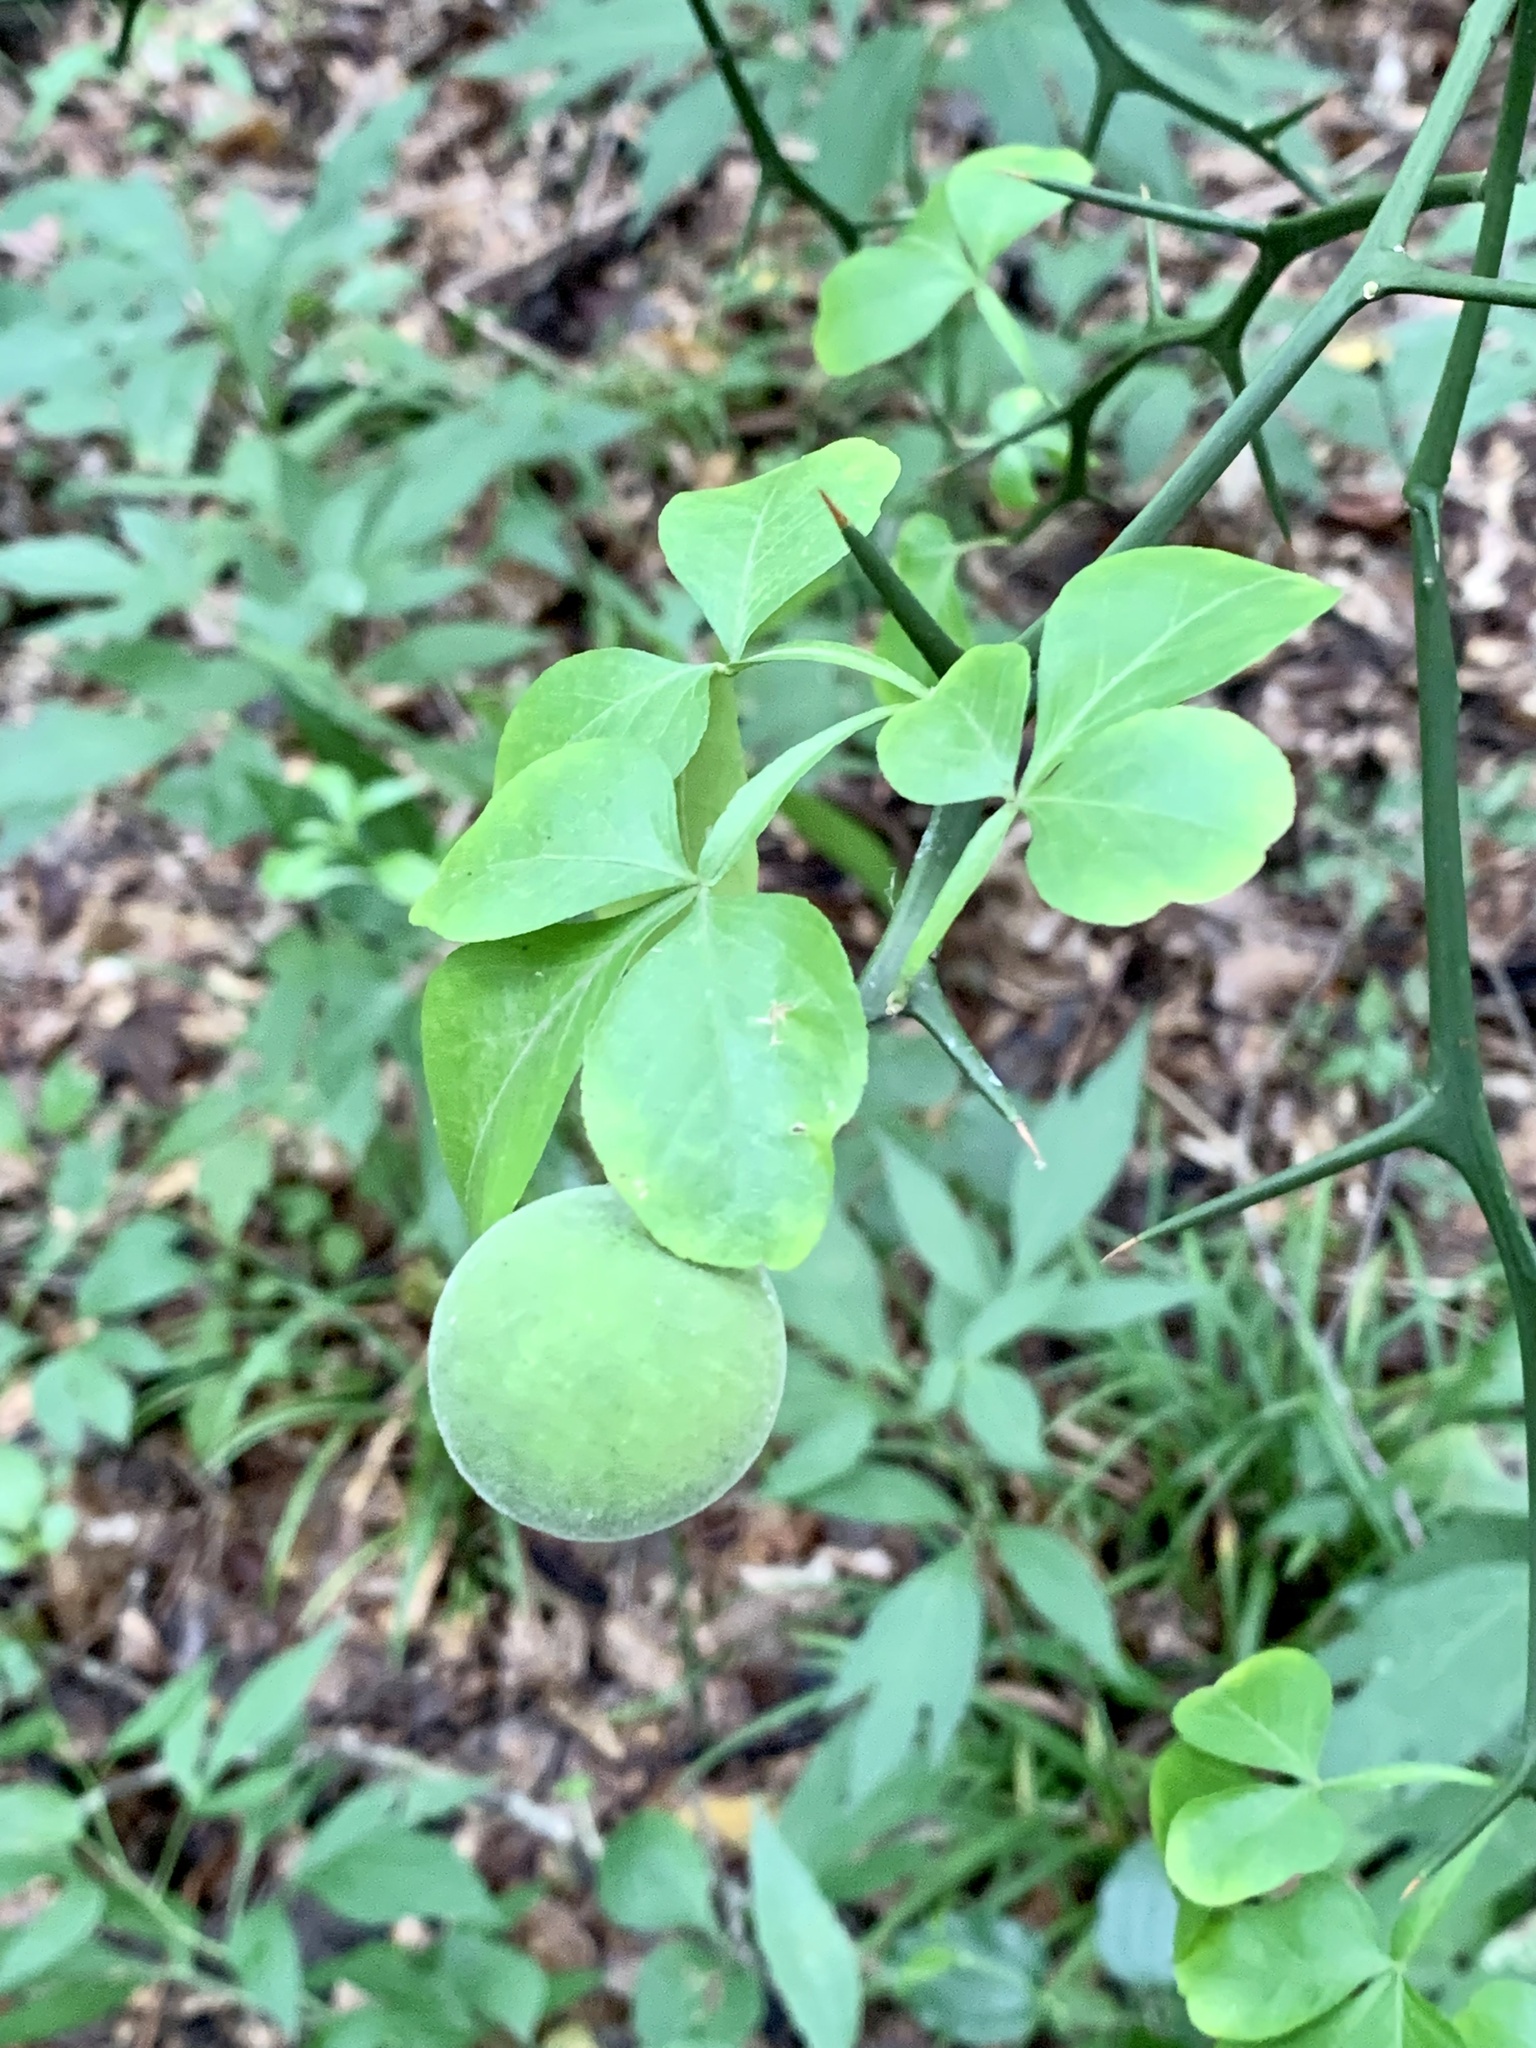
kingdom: Plantae
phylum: Tracheophyta
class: Magnoliopsida
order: Sapindales
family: Rutaceae
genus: Citrus
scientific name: Citrus trifoliata
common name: Japanese bitter-orange
